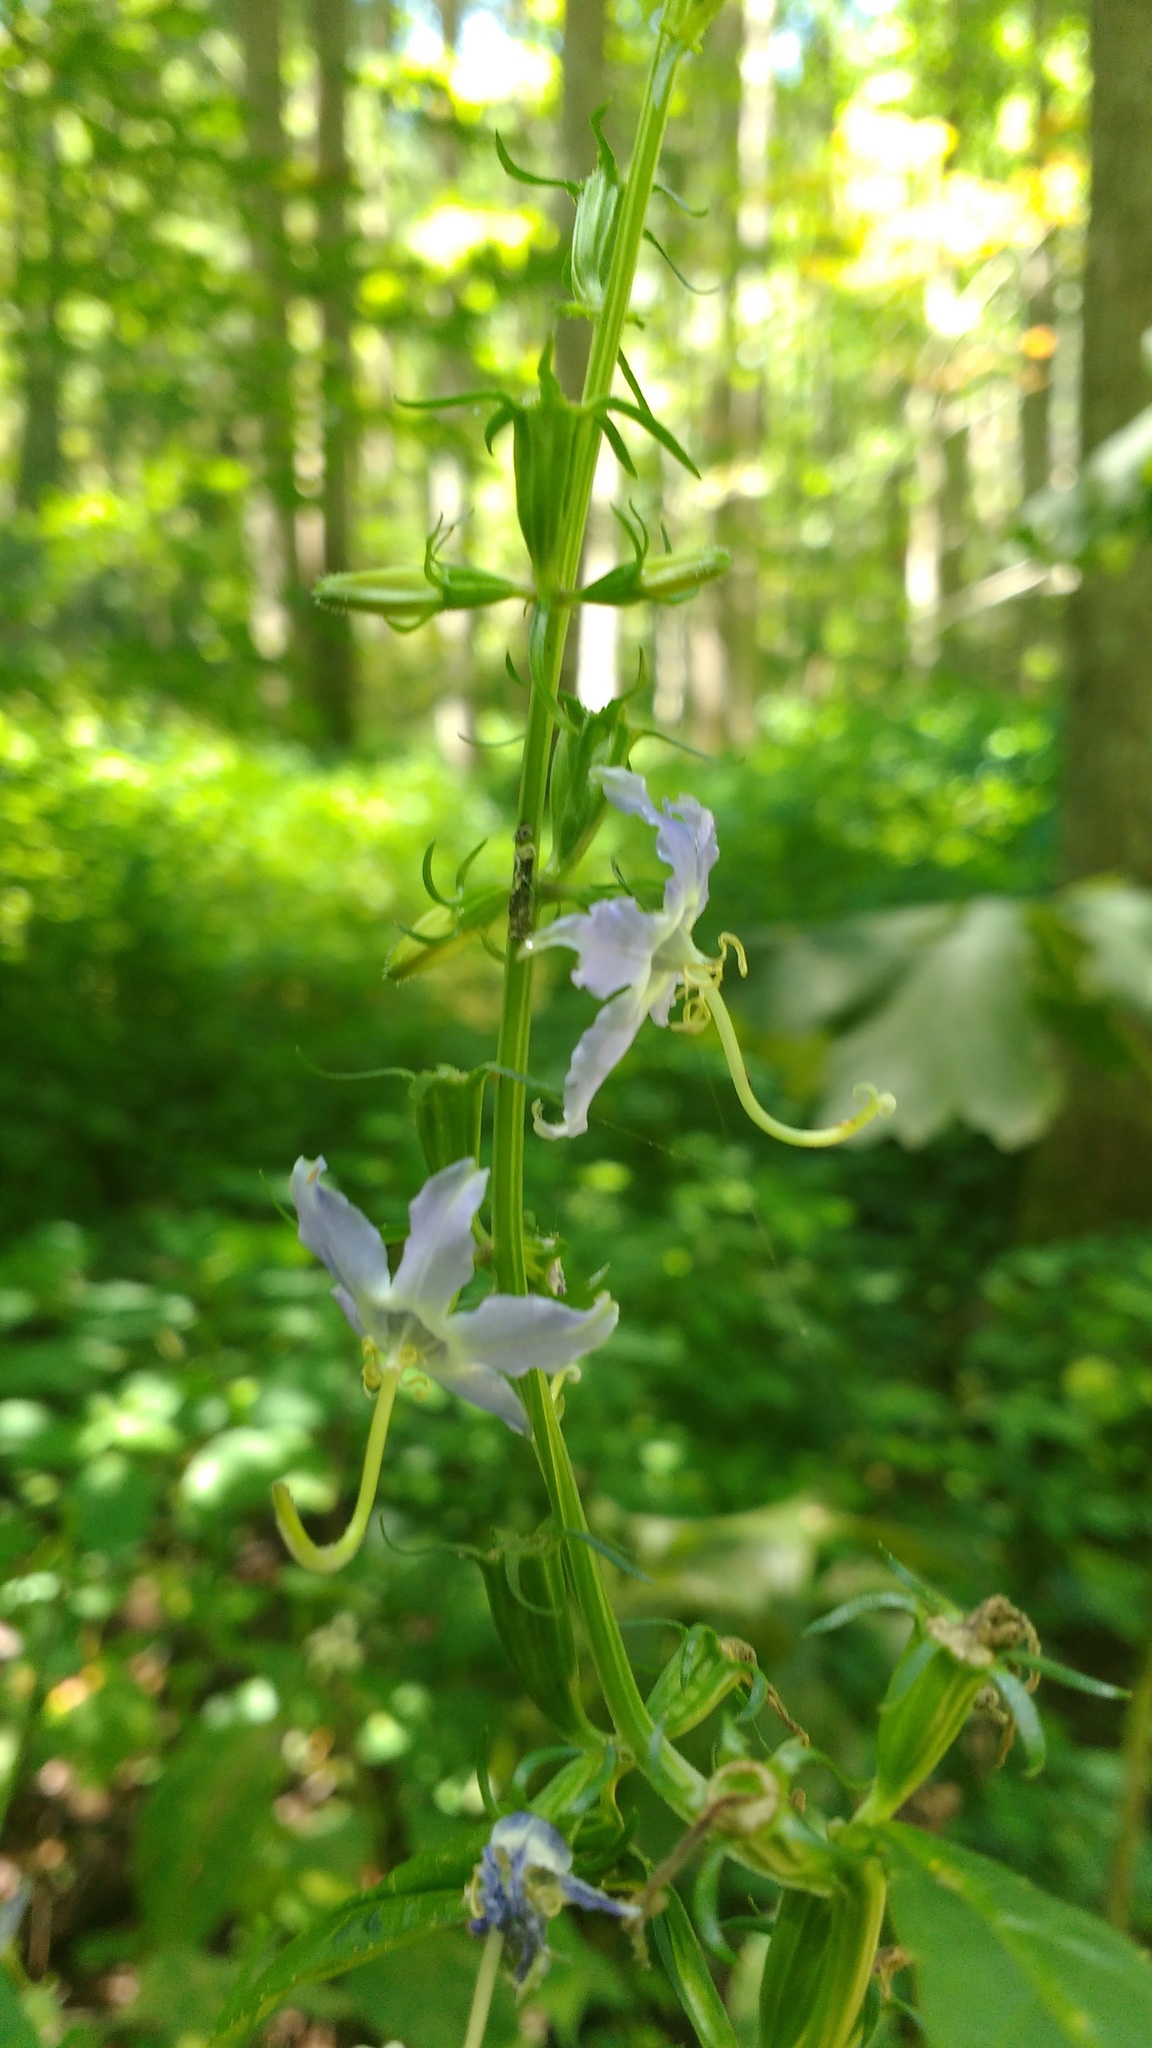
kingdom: Plantae
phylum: Tracheophyta
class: Magnoliopsida
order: Asterales
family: Campanulaceae
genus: Campanulastrum
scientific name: Campanulastrum americanum
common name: American bellflower
